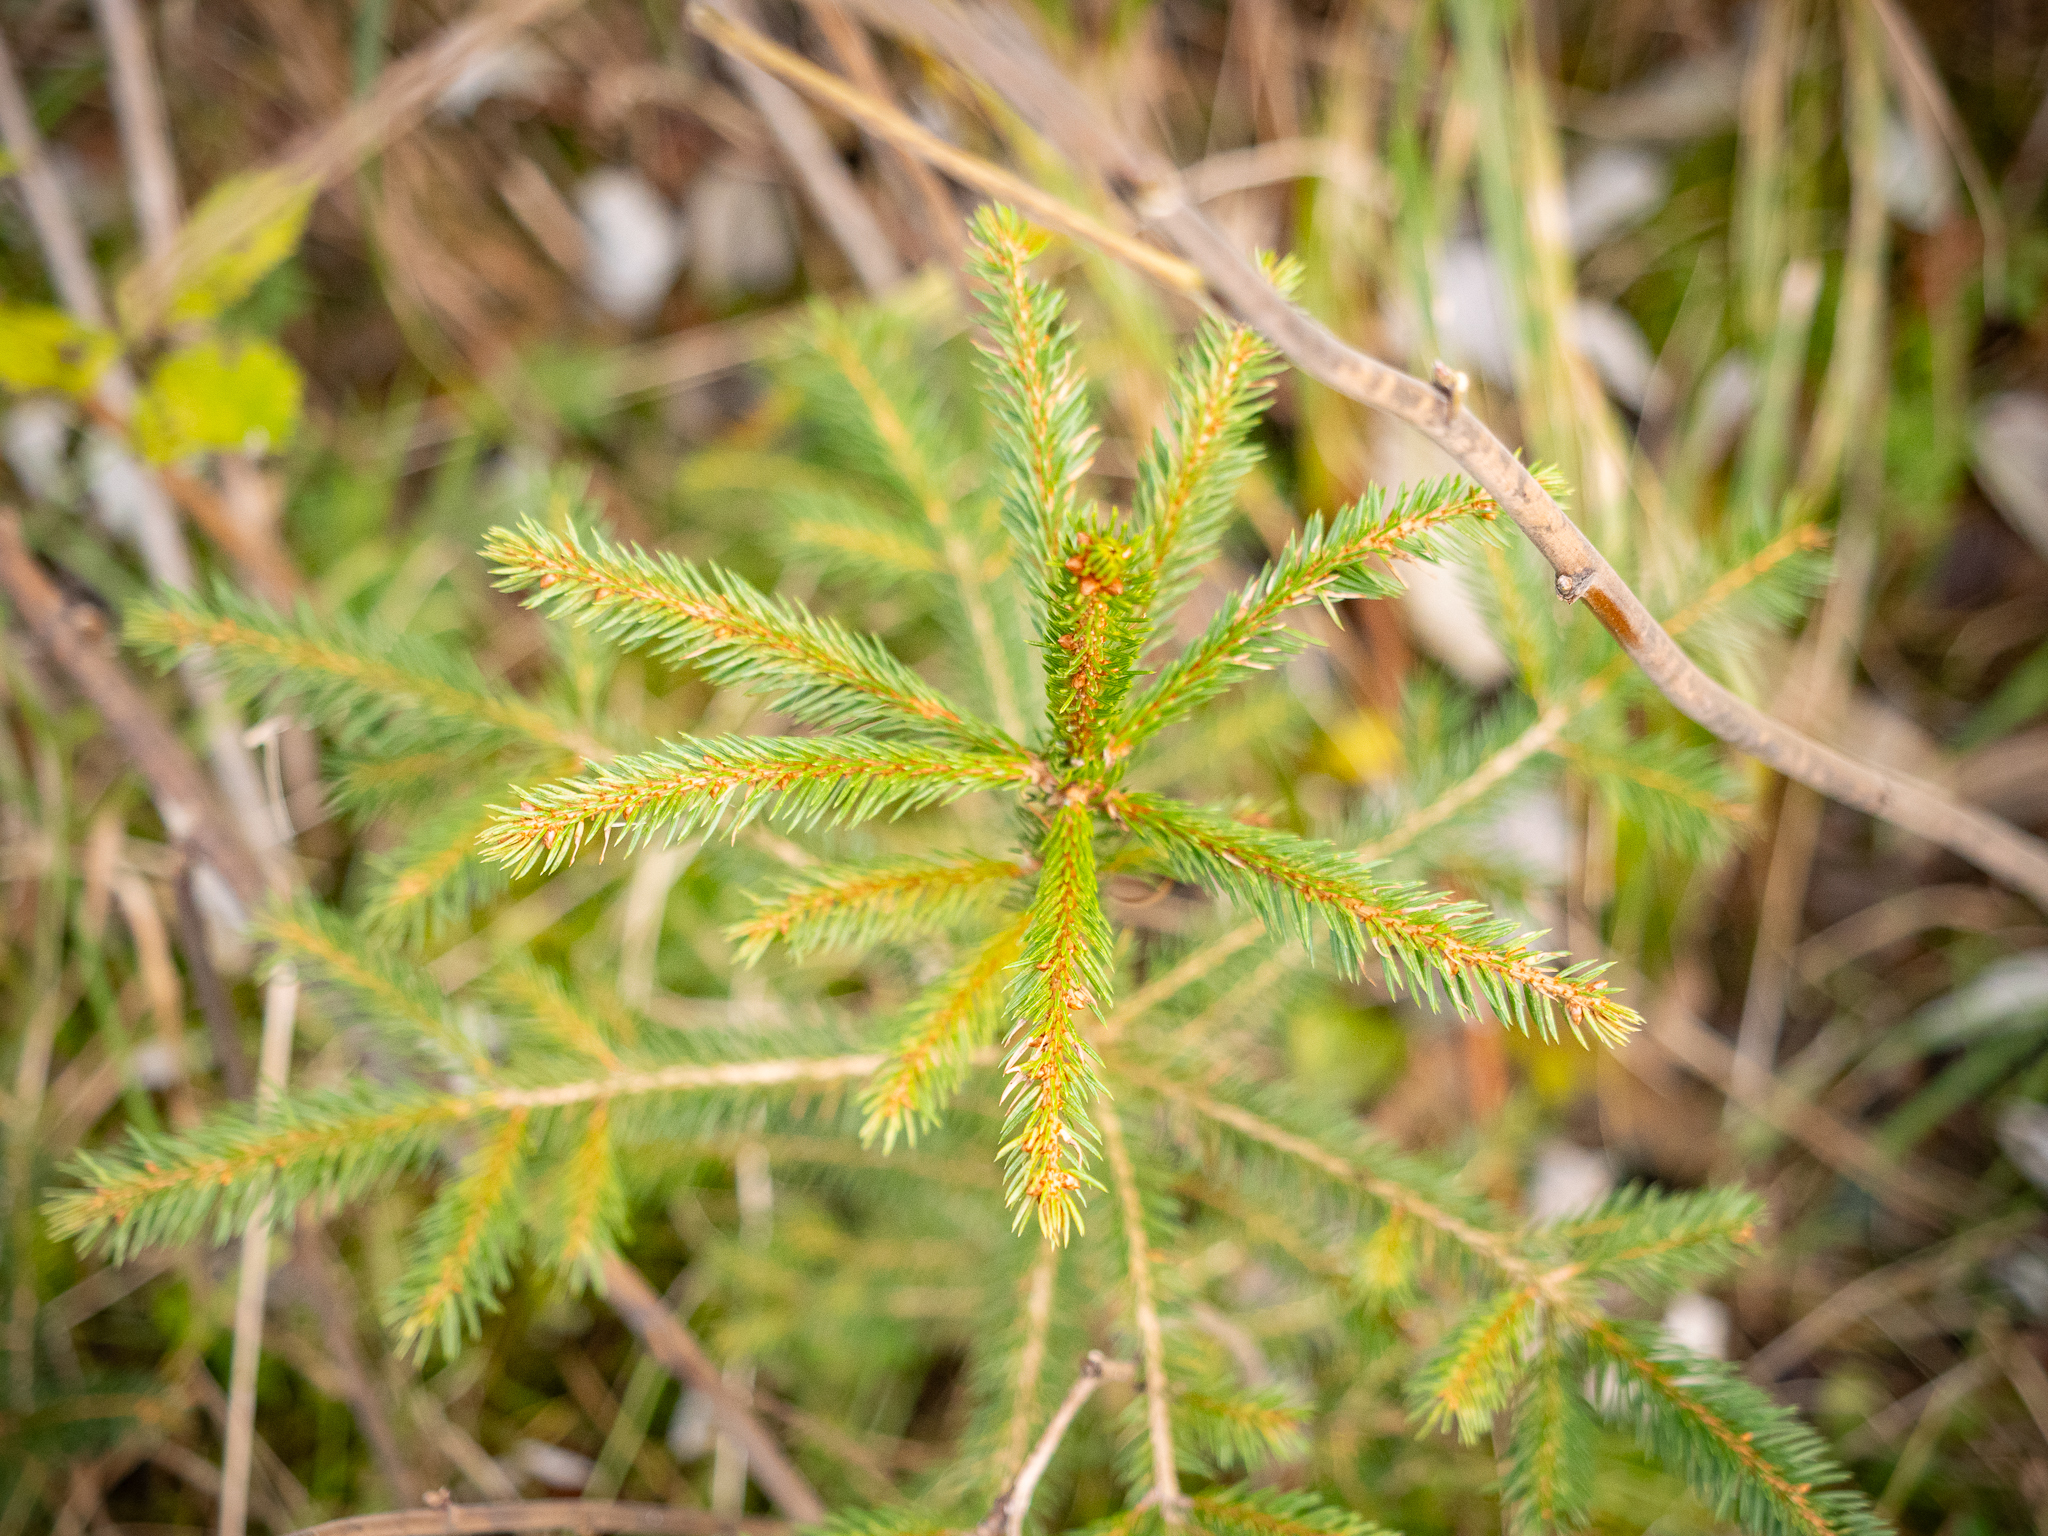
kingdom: Plantae
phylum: Tracheophyta
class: Pinopsida
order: Pinales
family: Pinaceae
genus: Picea
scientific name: Picea abies
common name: Norway spruce
